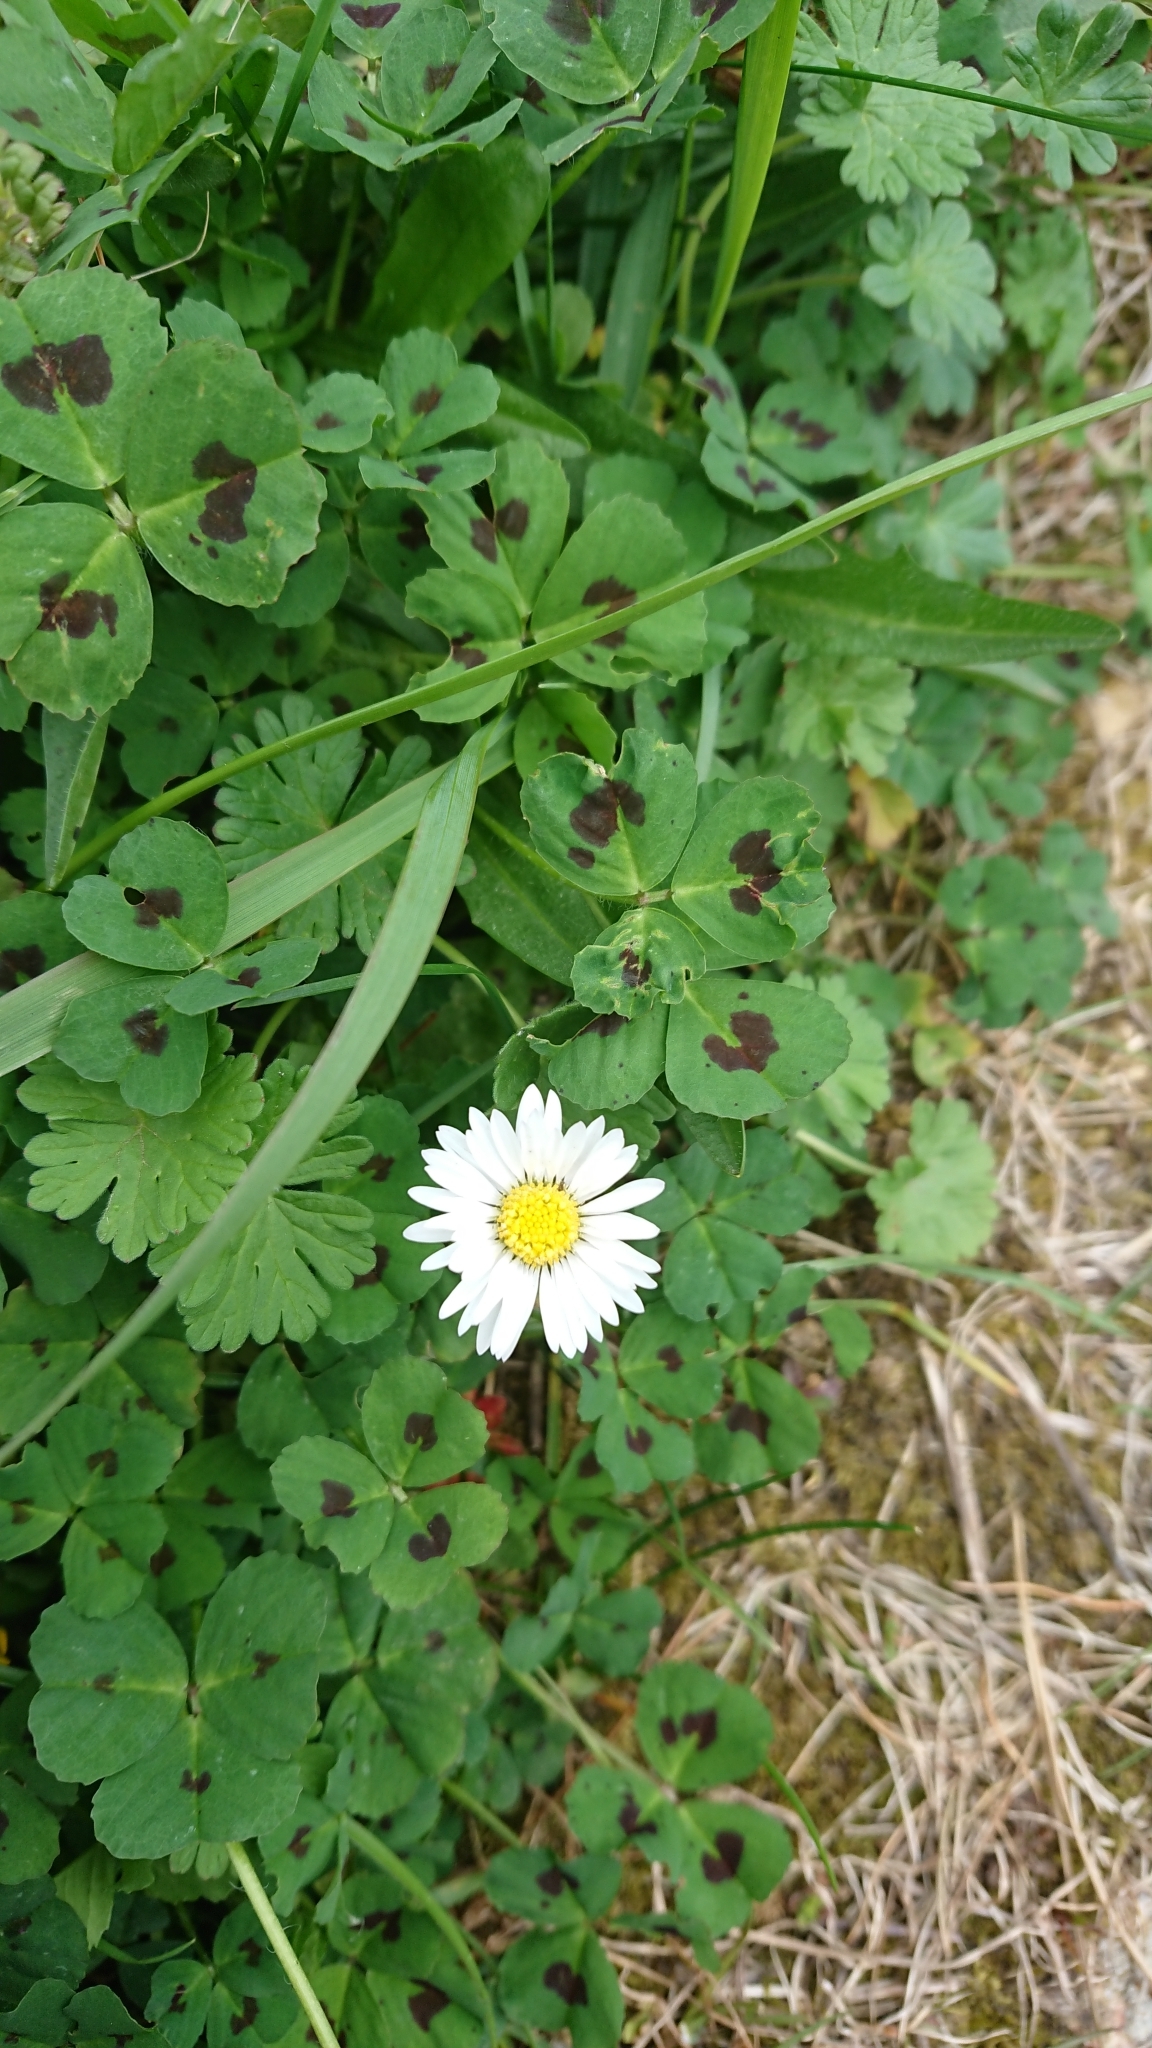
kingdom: Plantae
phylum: Tracheophyta
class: Magnoliopsida
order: Asterales
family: Asteraceae
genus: Bellis
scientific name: Bellis perennis
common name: Lawndaisy
